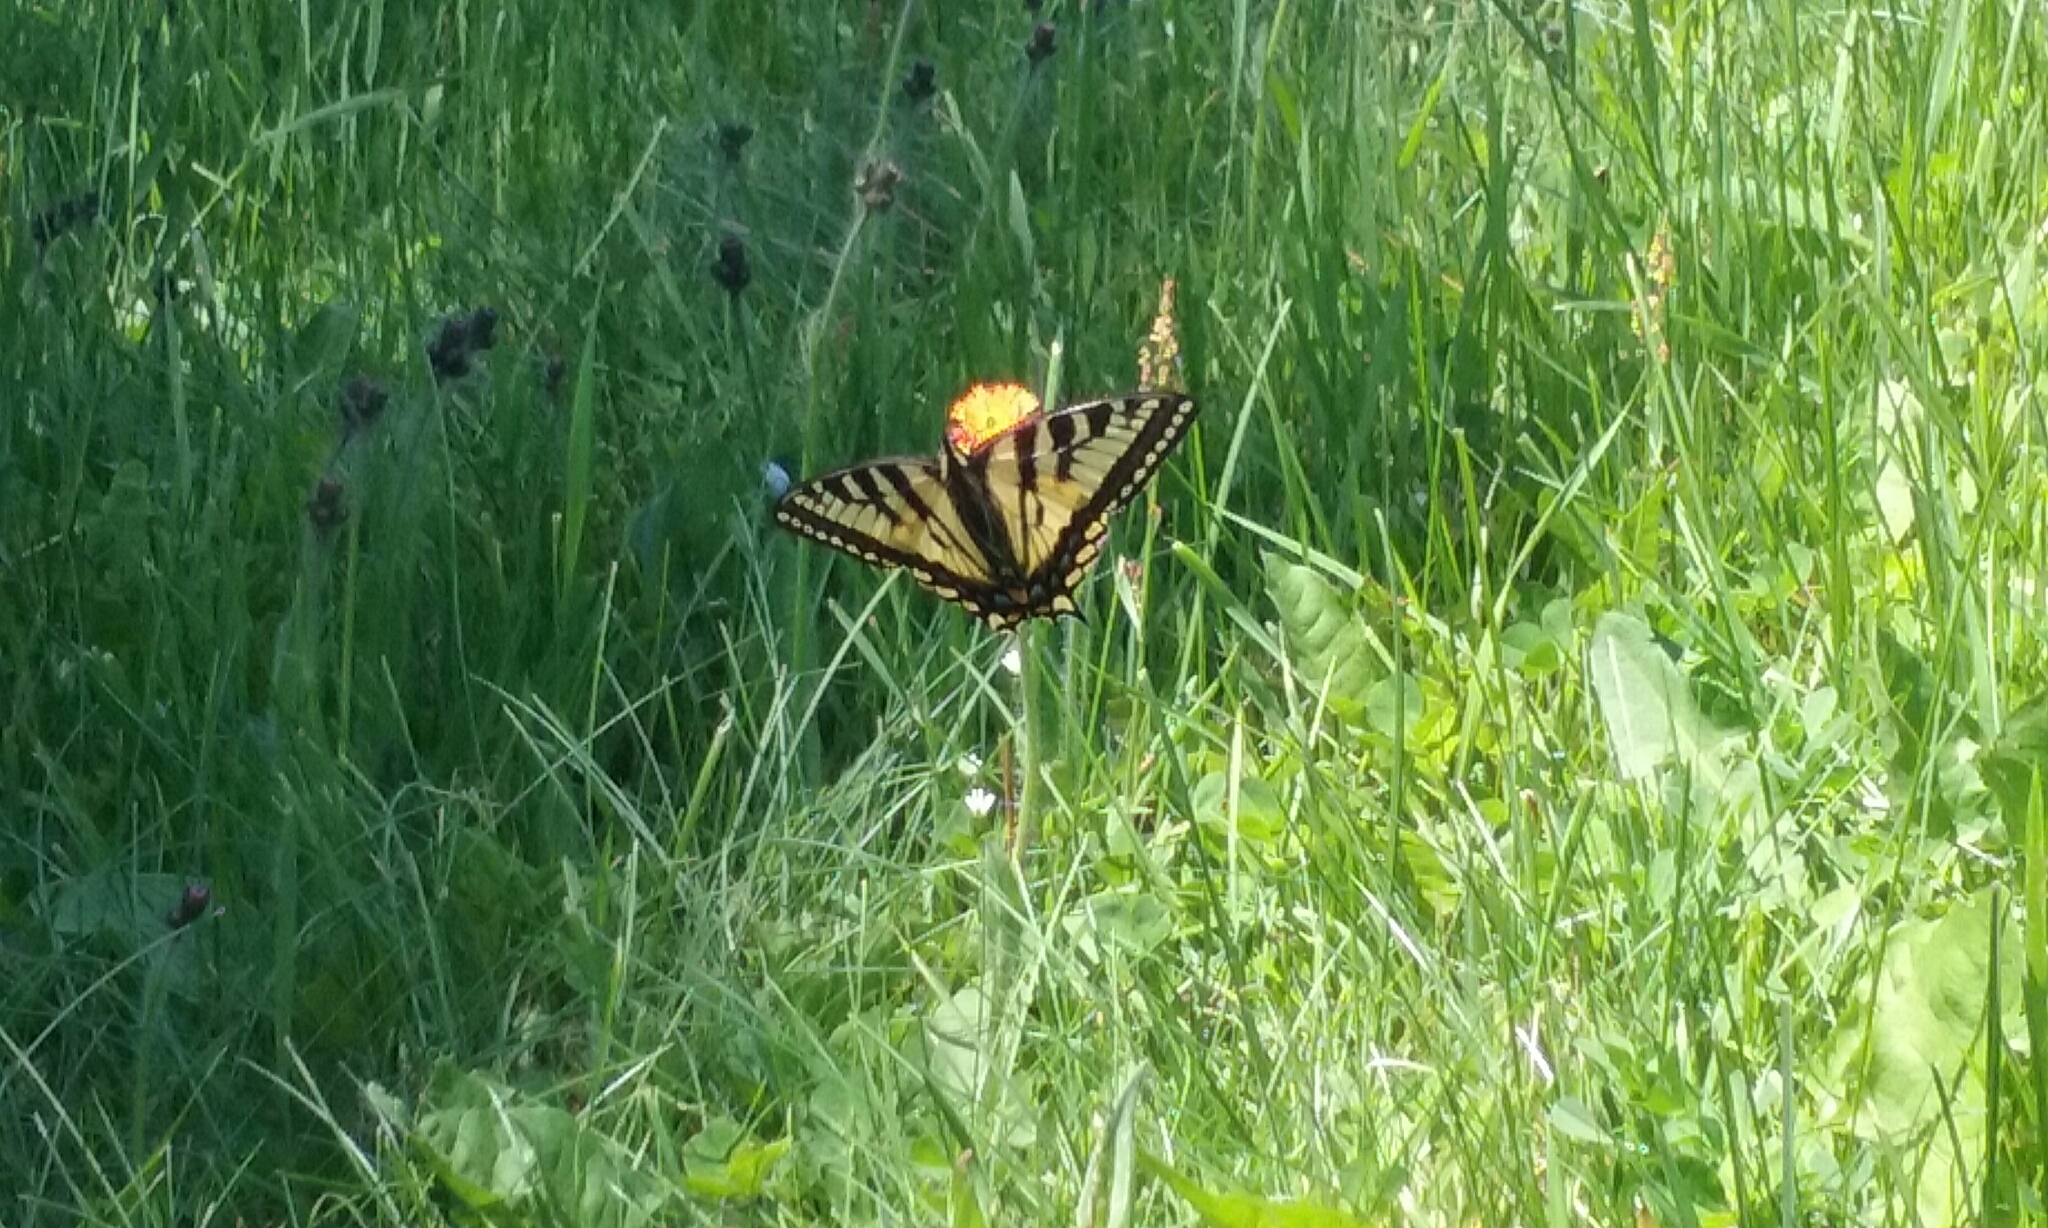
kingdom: Animalia
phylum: Arthropoda
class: Insecta
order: Lepidoptera
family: Papilionidae
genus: Papilio
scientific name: Papilio canadensis
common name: Canadian tiger swallowtail
